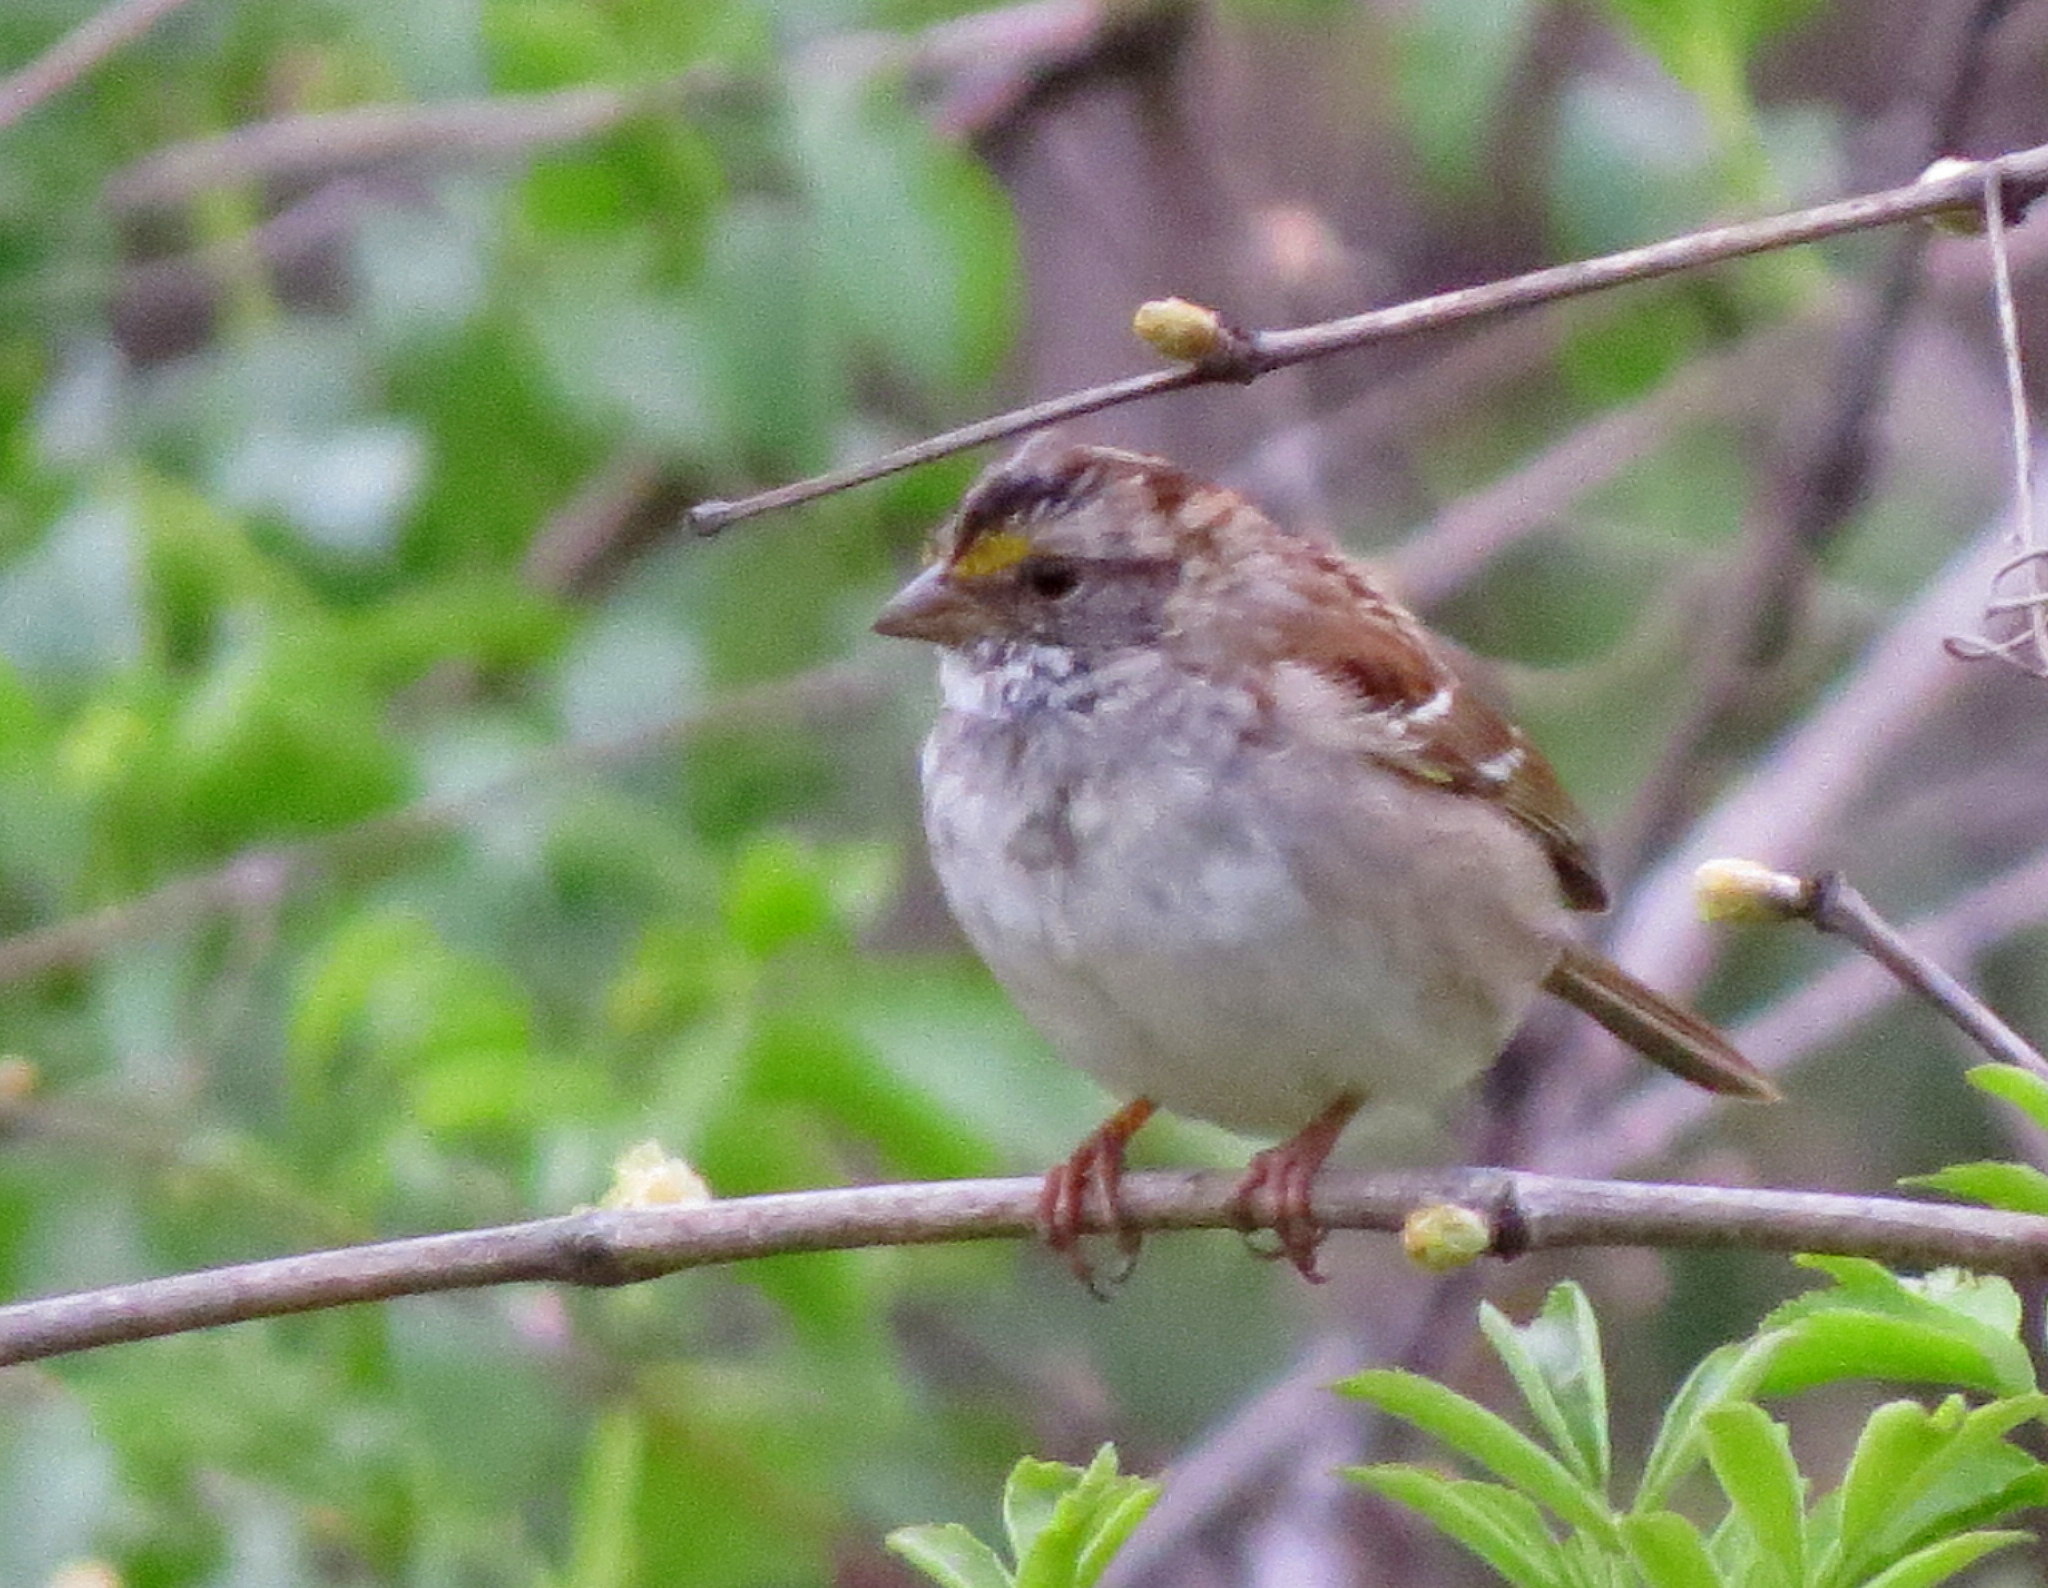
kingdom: Animalia
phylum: Chordata
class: Aves
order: Passeriformes
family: Passerellidae
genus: Zonotrichia
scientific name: Zonotrichia albicollis
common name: White-throated sparrow
